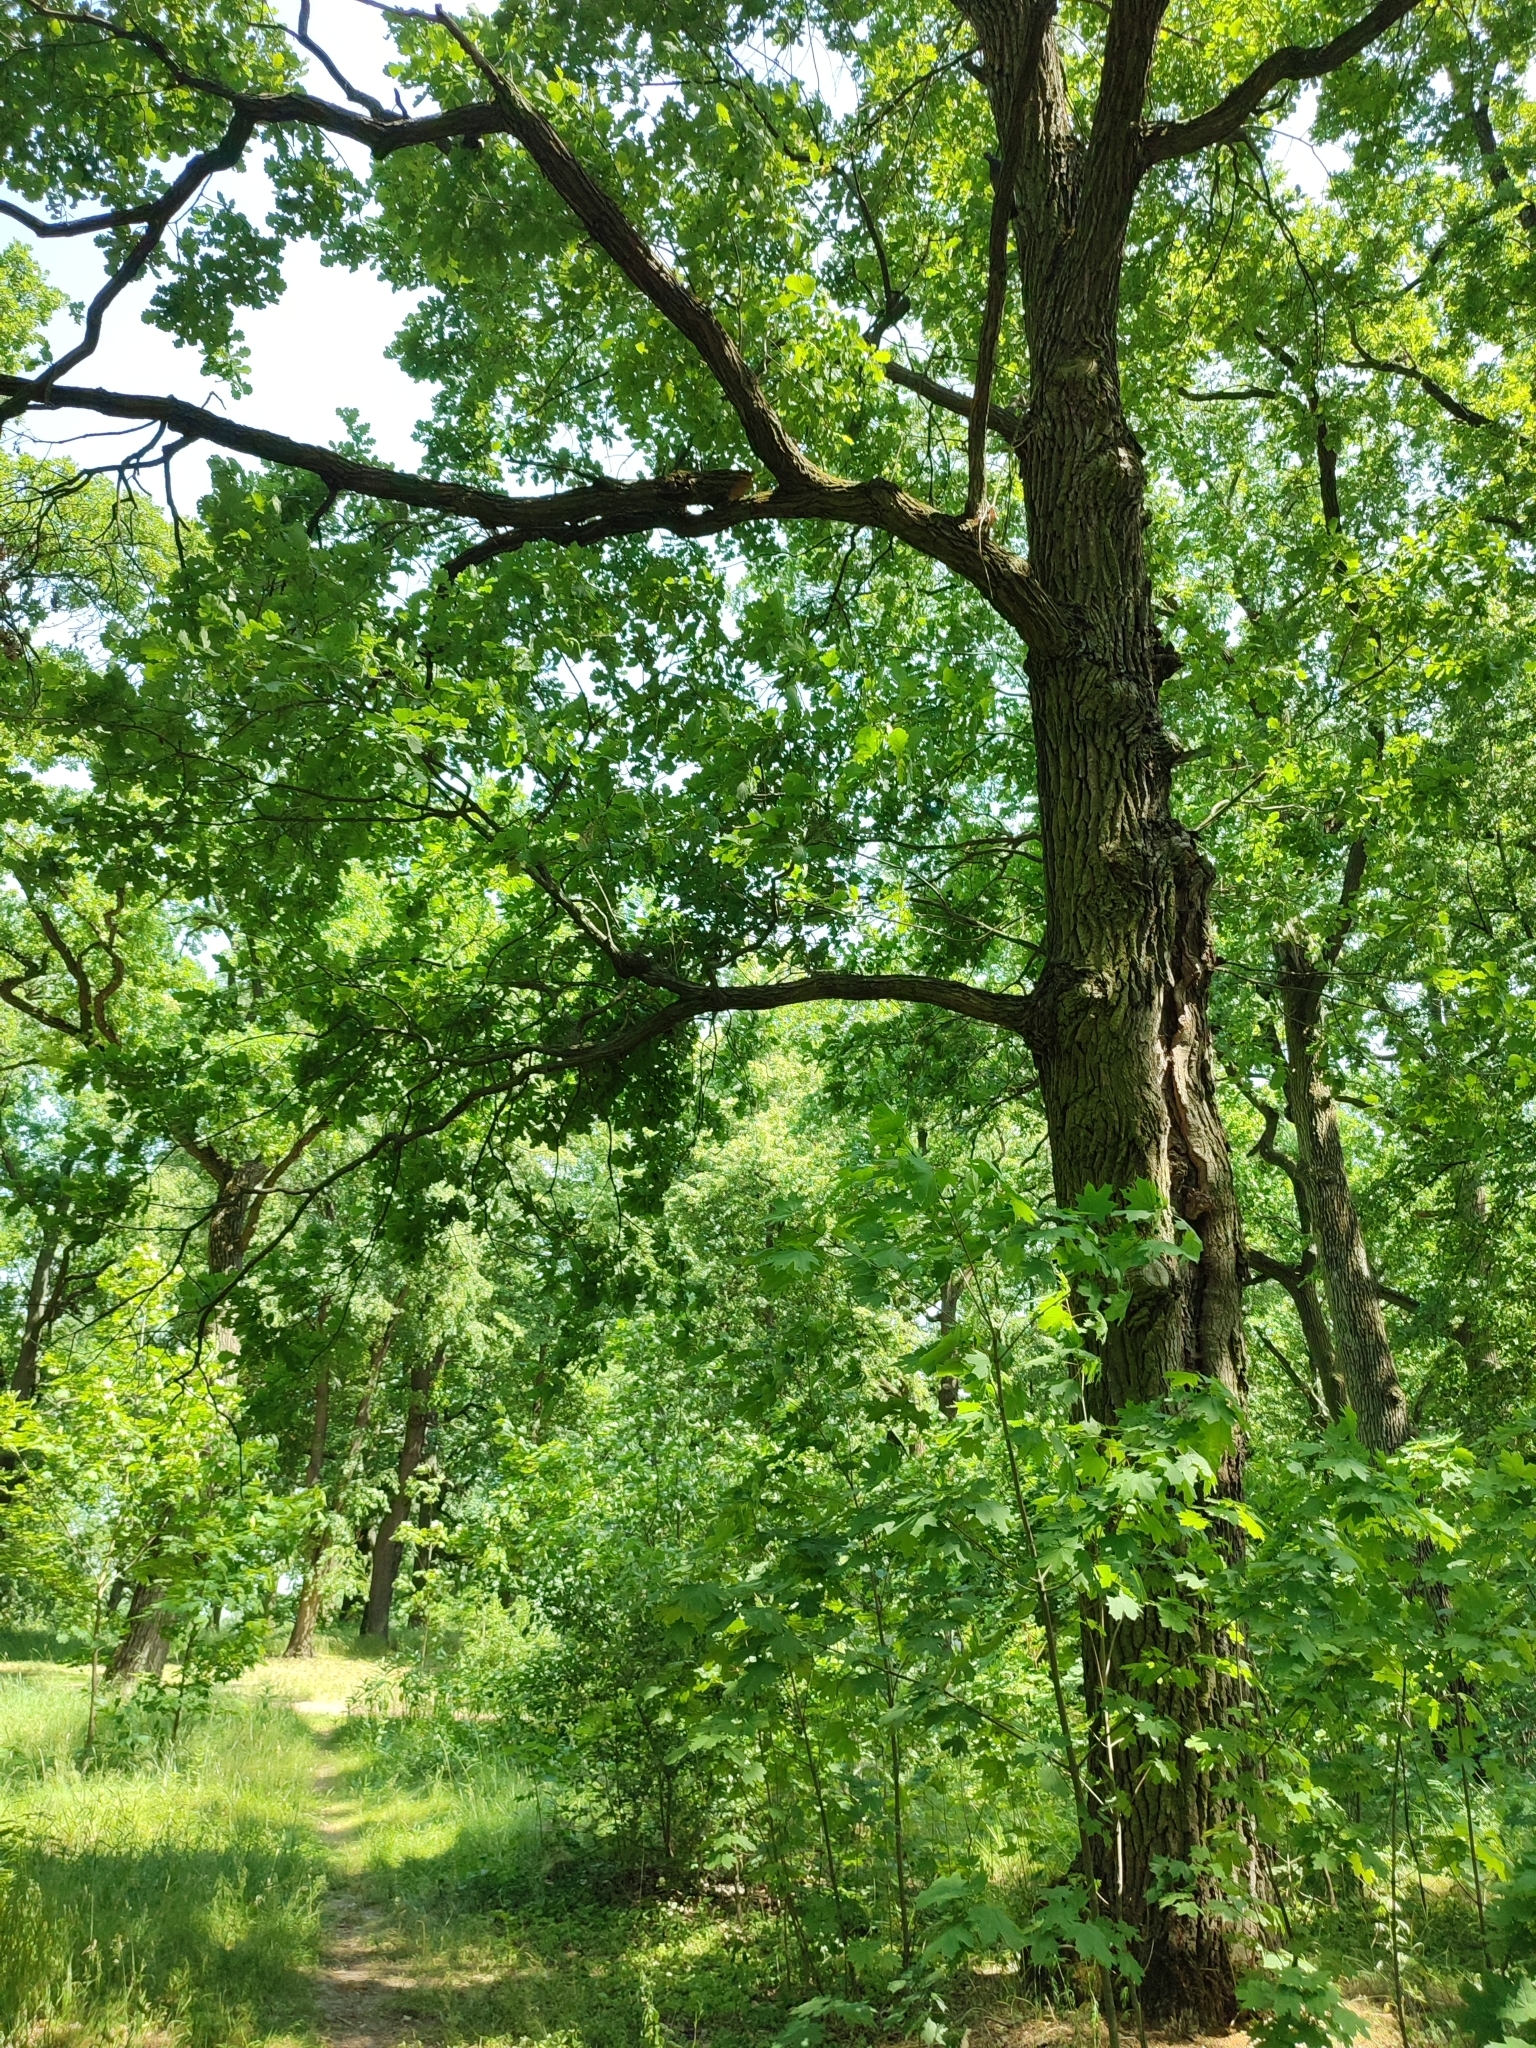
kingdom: Plantae
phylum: Tracheophyta
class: Magnoliopsida
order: Fagales
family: Fagaceae
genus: Quercus
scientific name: Quercus robur
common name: Pedunculate oak
